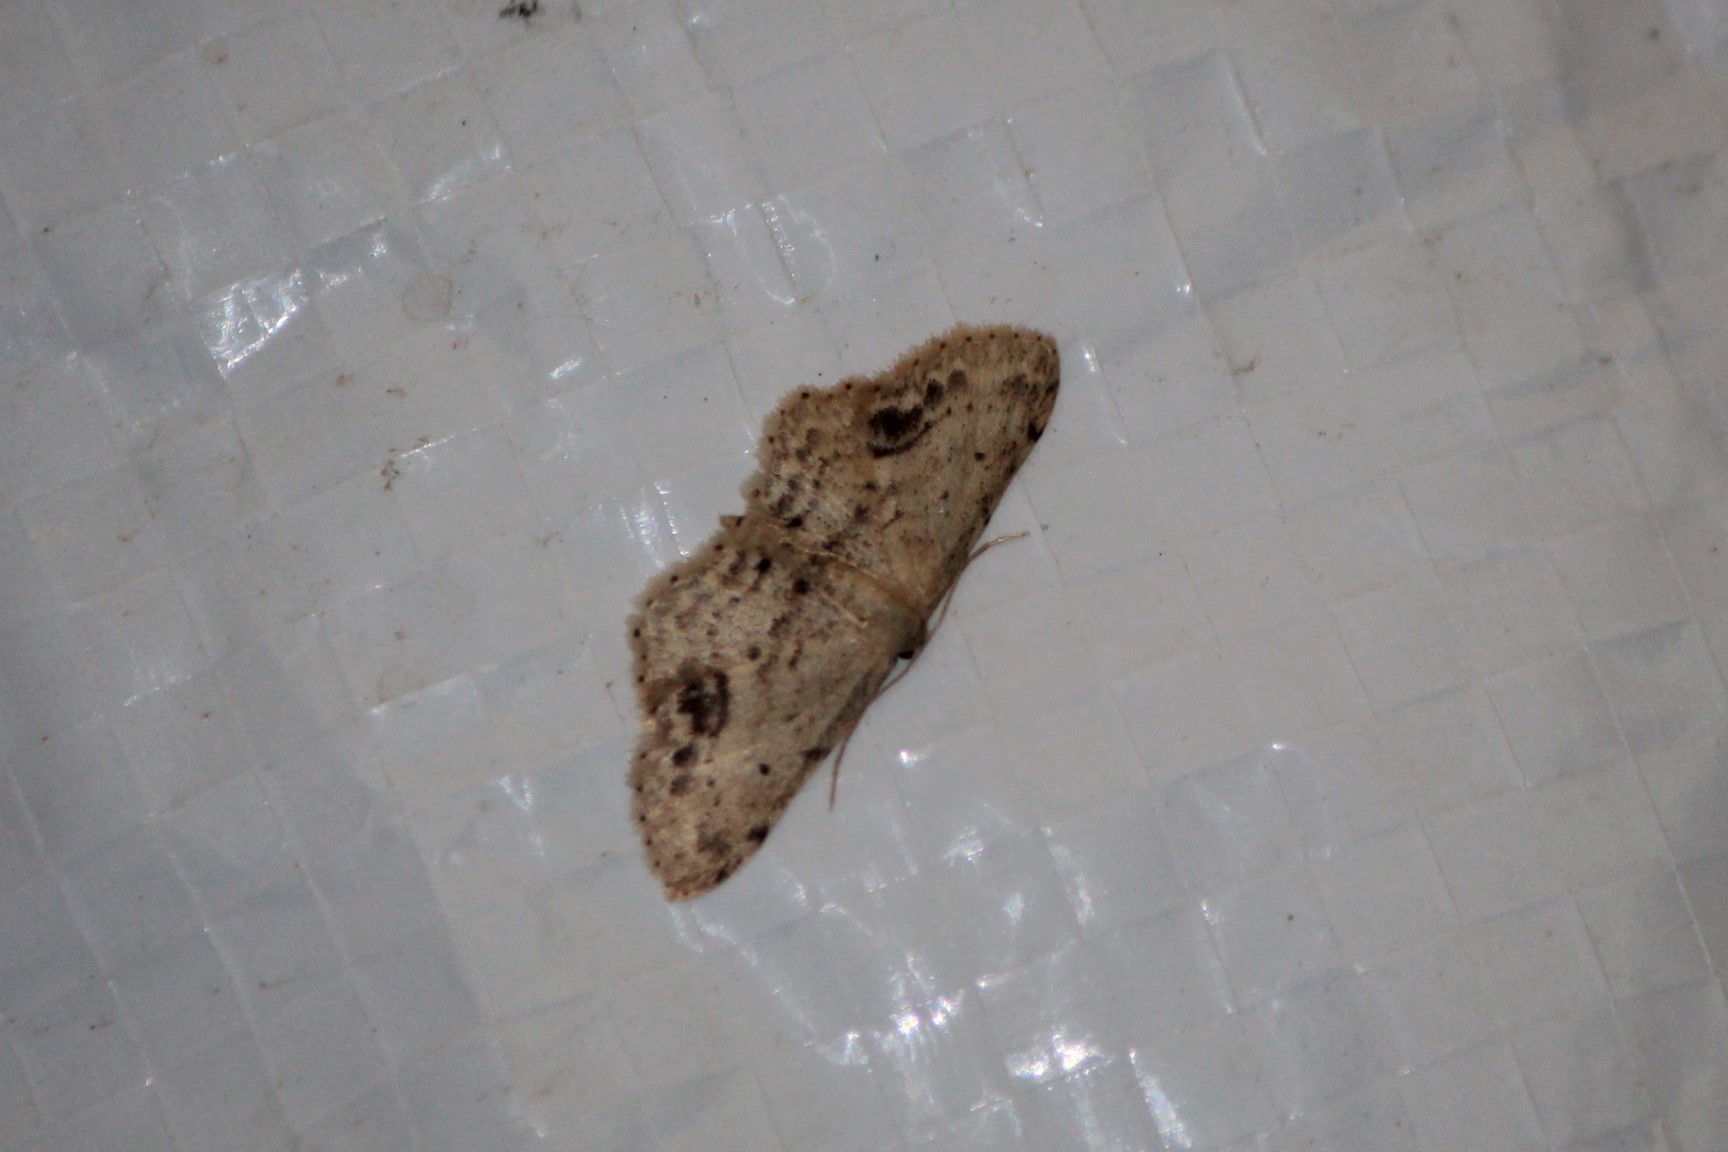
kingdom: Animalia
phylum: Arthropoda
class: Insecta
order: Lepidoptera
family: Geometridae
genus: Idaea
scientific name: Idaea dimidiata
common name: Single-dotted wave
